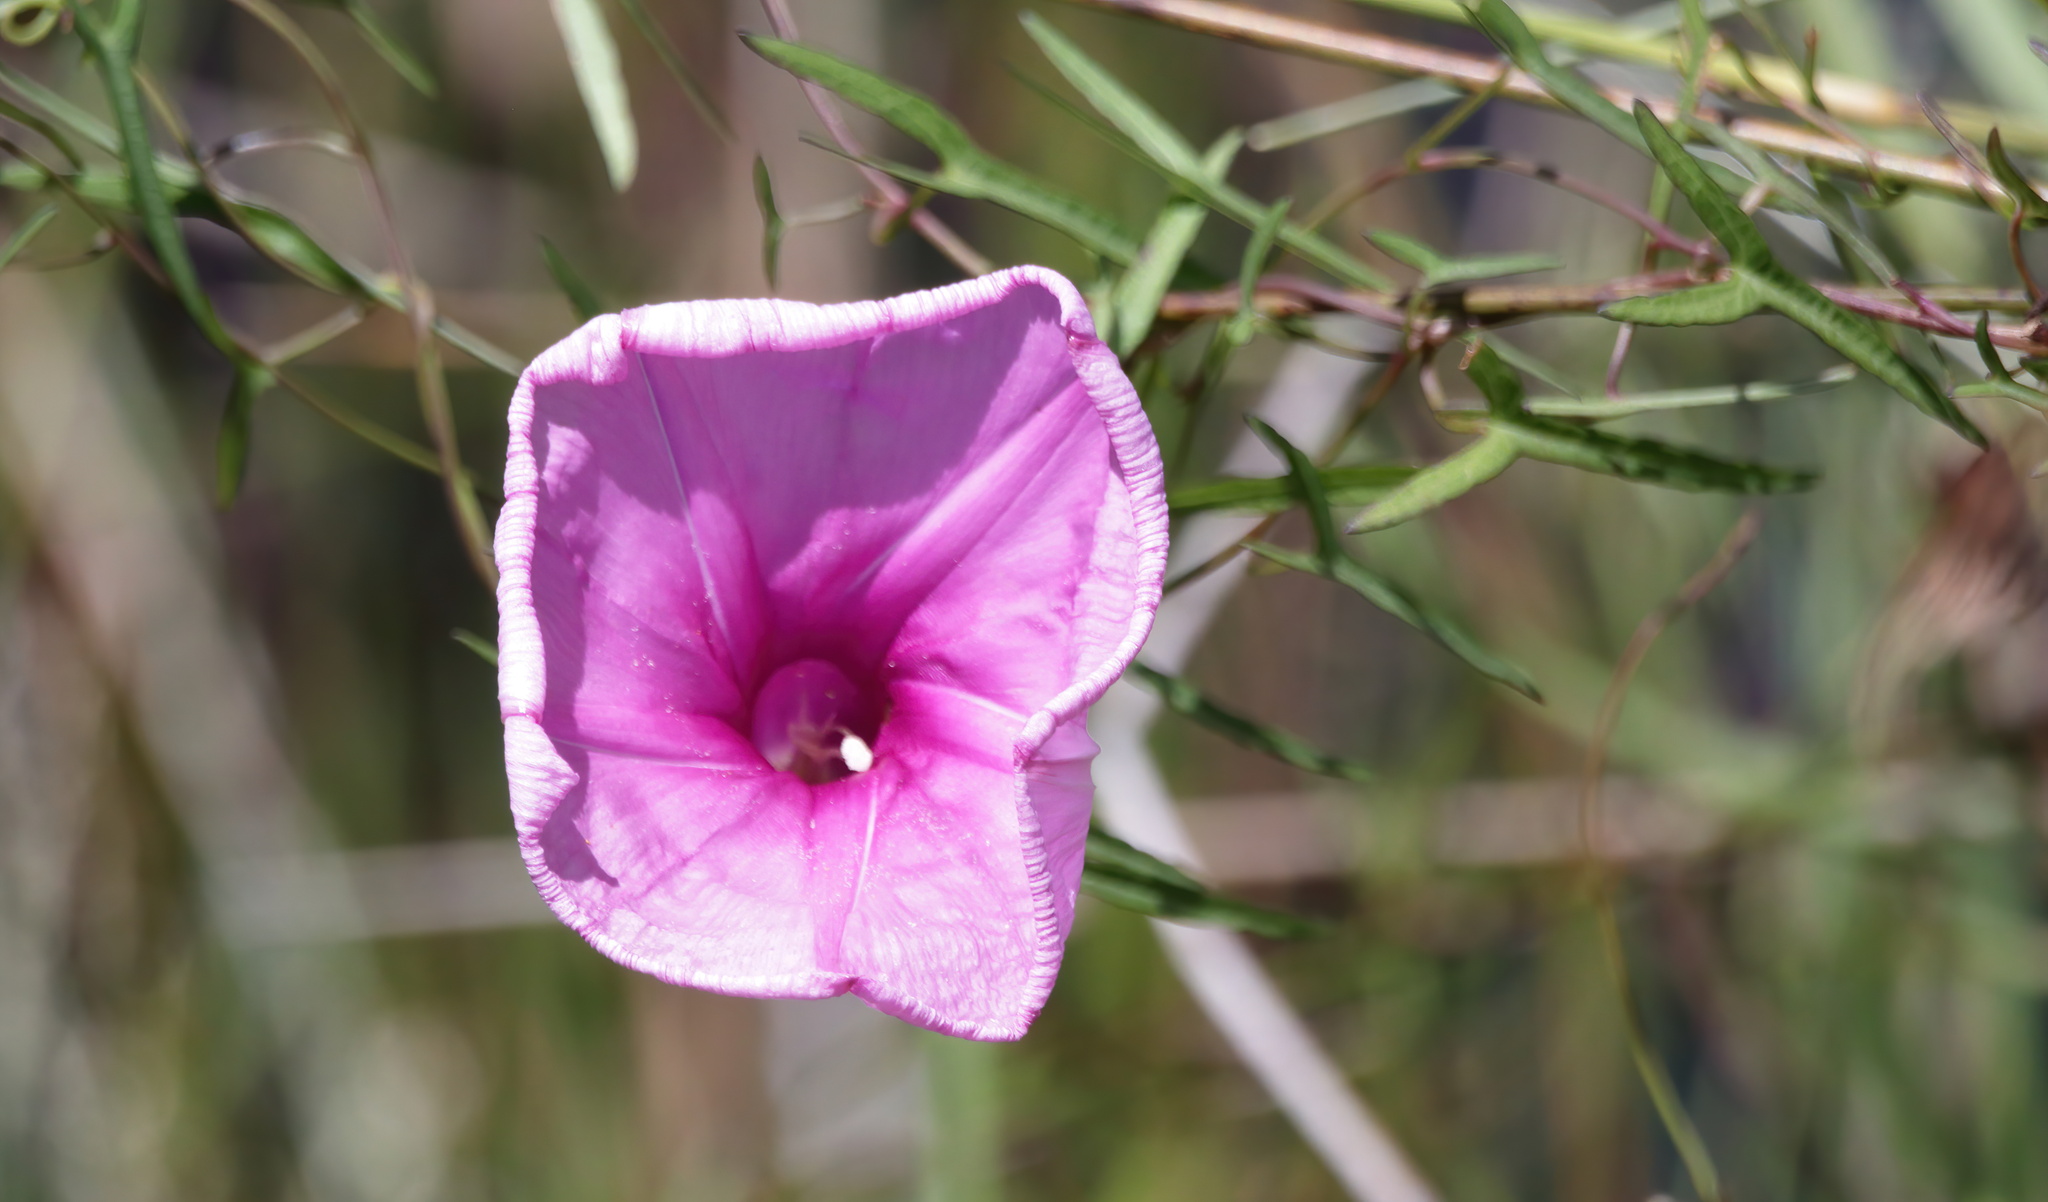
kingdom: Plantae
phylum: Tracheophyta
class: Magnoliopsida
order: Solanales
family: Convolvulaceae
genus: Ipomoea
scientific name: Ipomoea sagittata
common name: Saltmarsh morning glory
